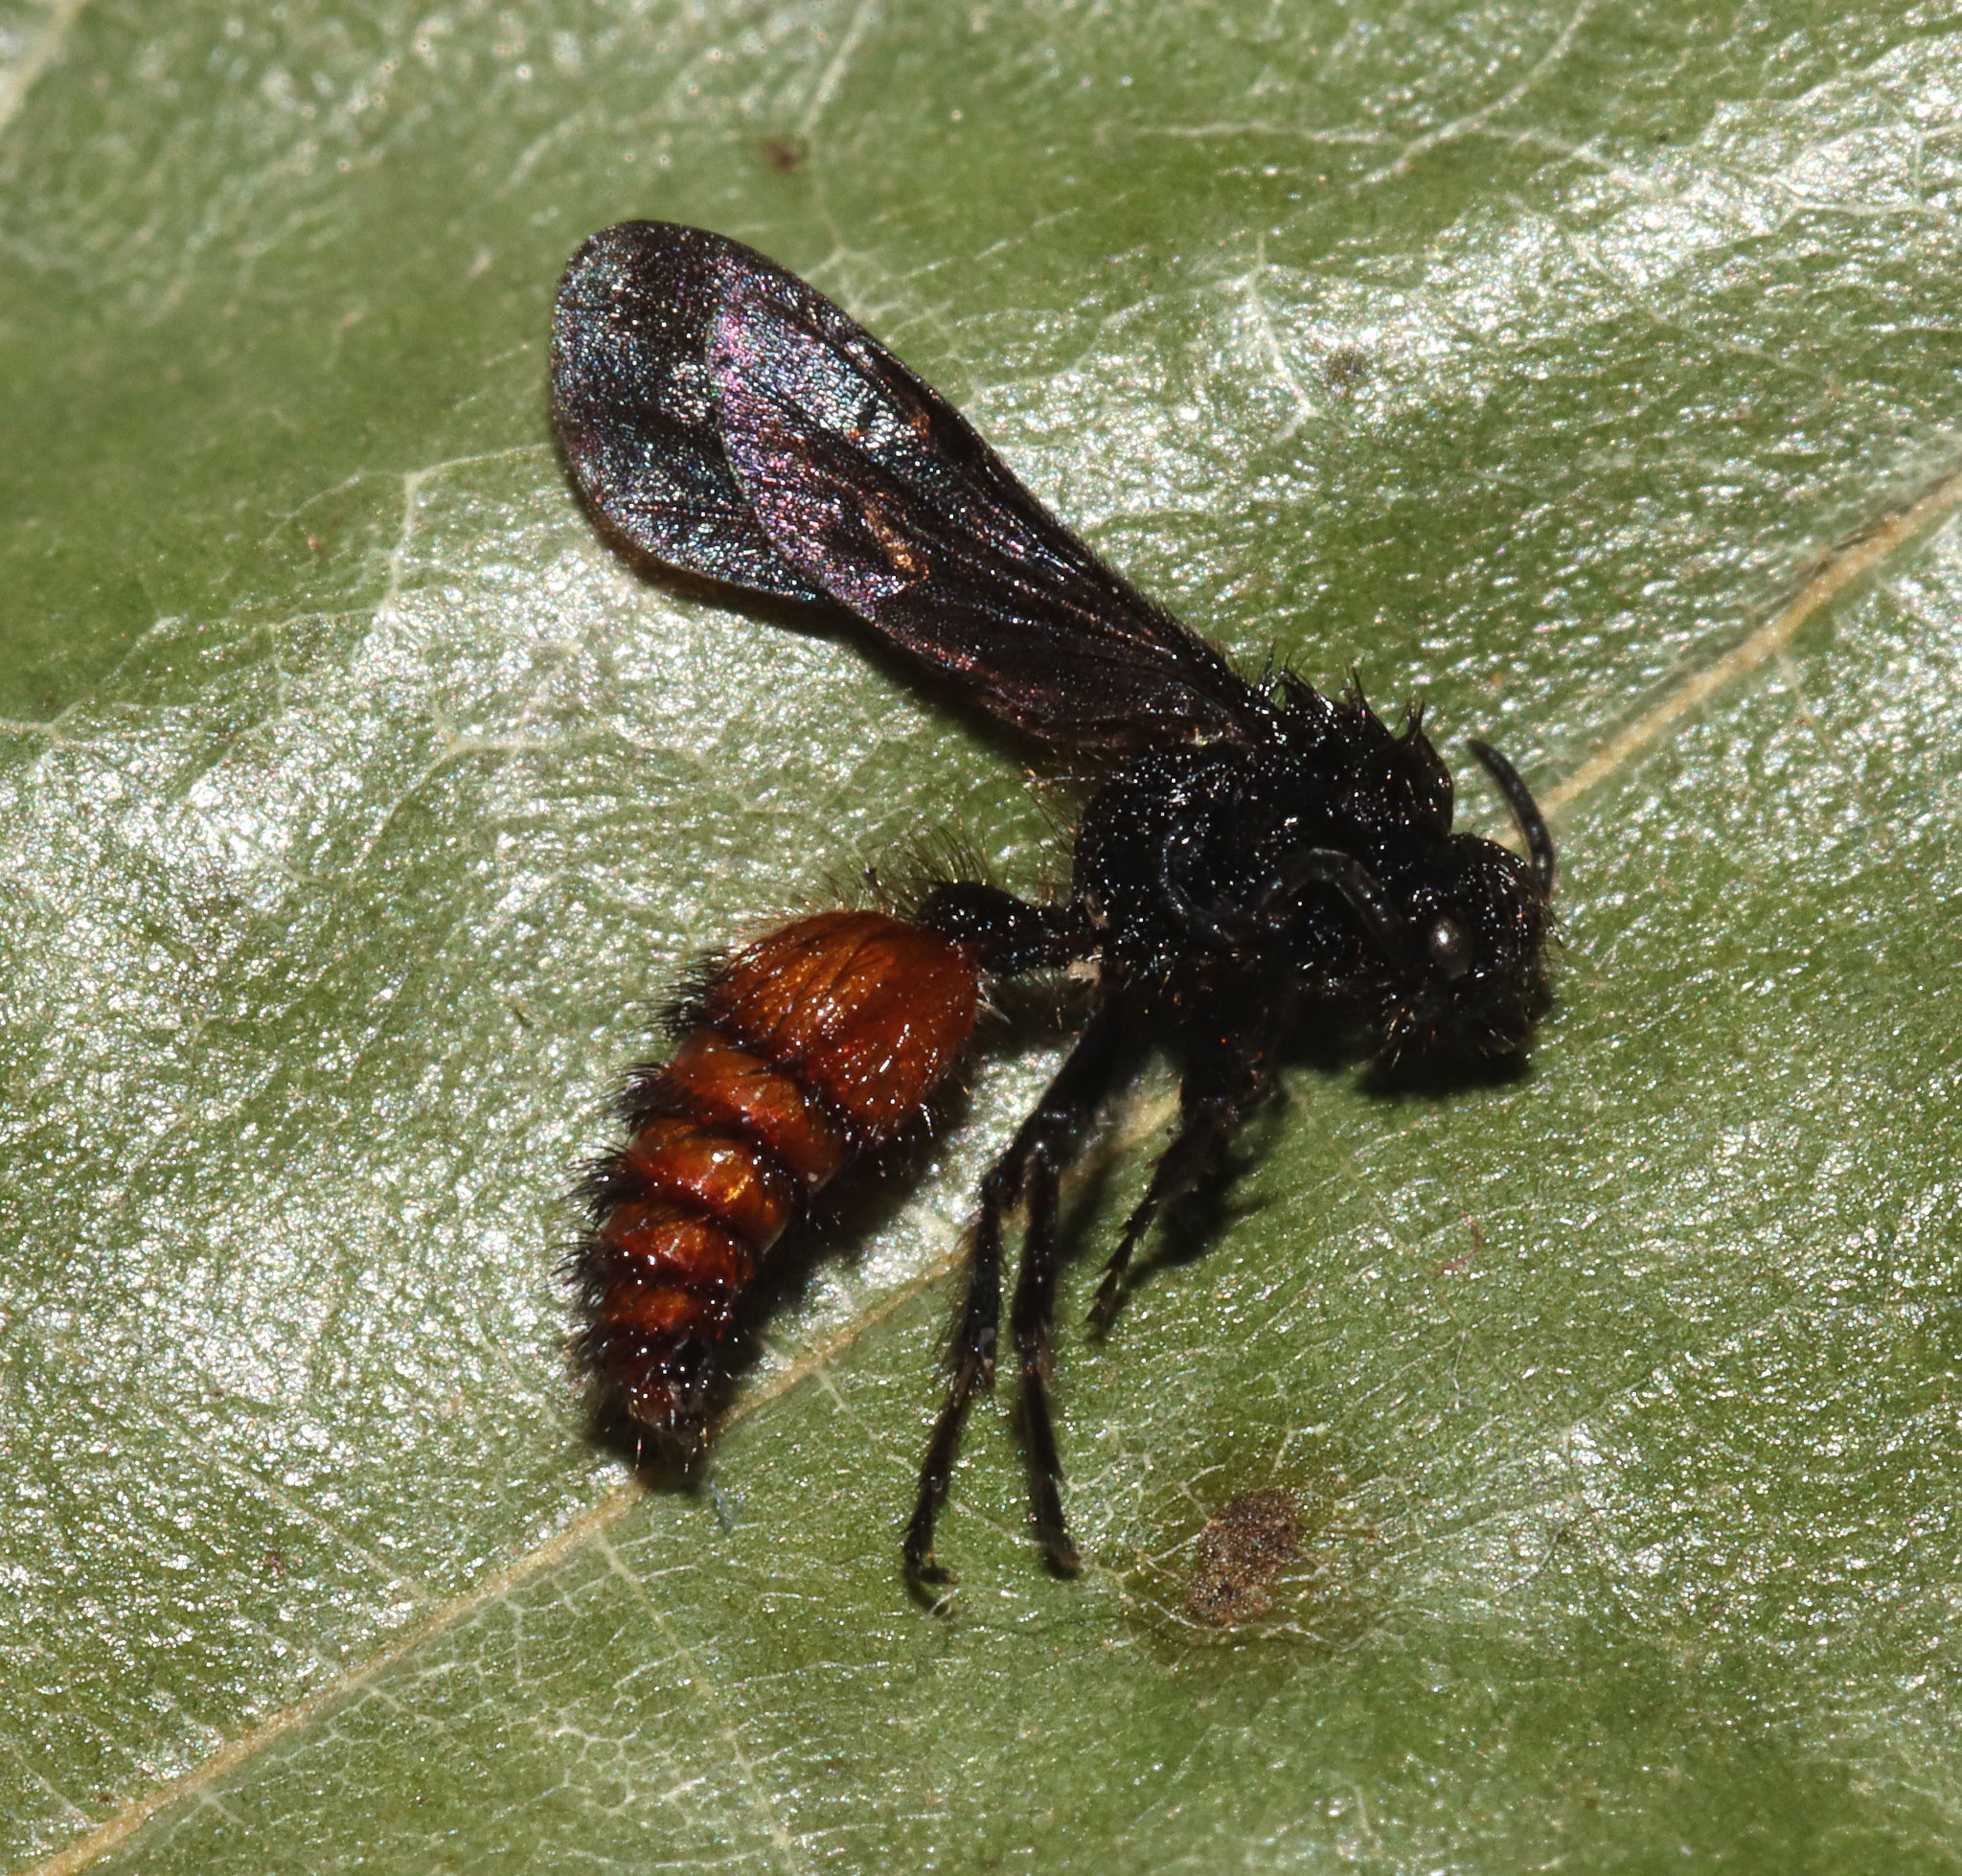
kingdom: Animalia
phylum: Arthropoda
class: Insecta
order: Hymenoptera
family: Mutillidae
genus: Dasymutilla
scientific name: Dasymutilla
